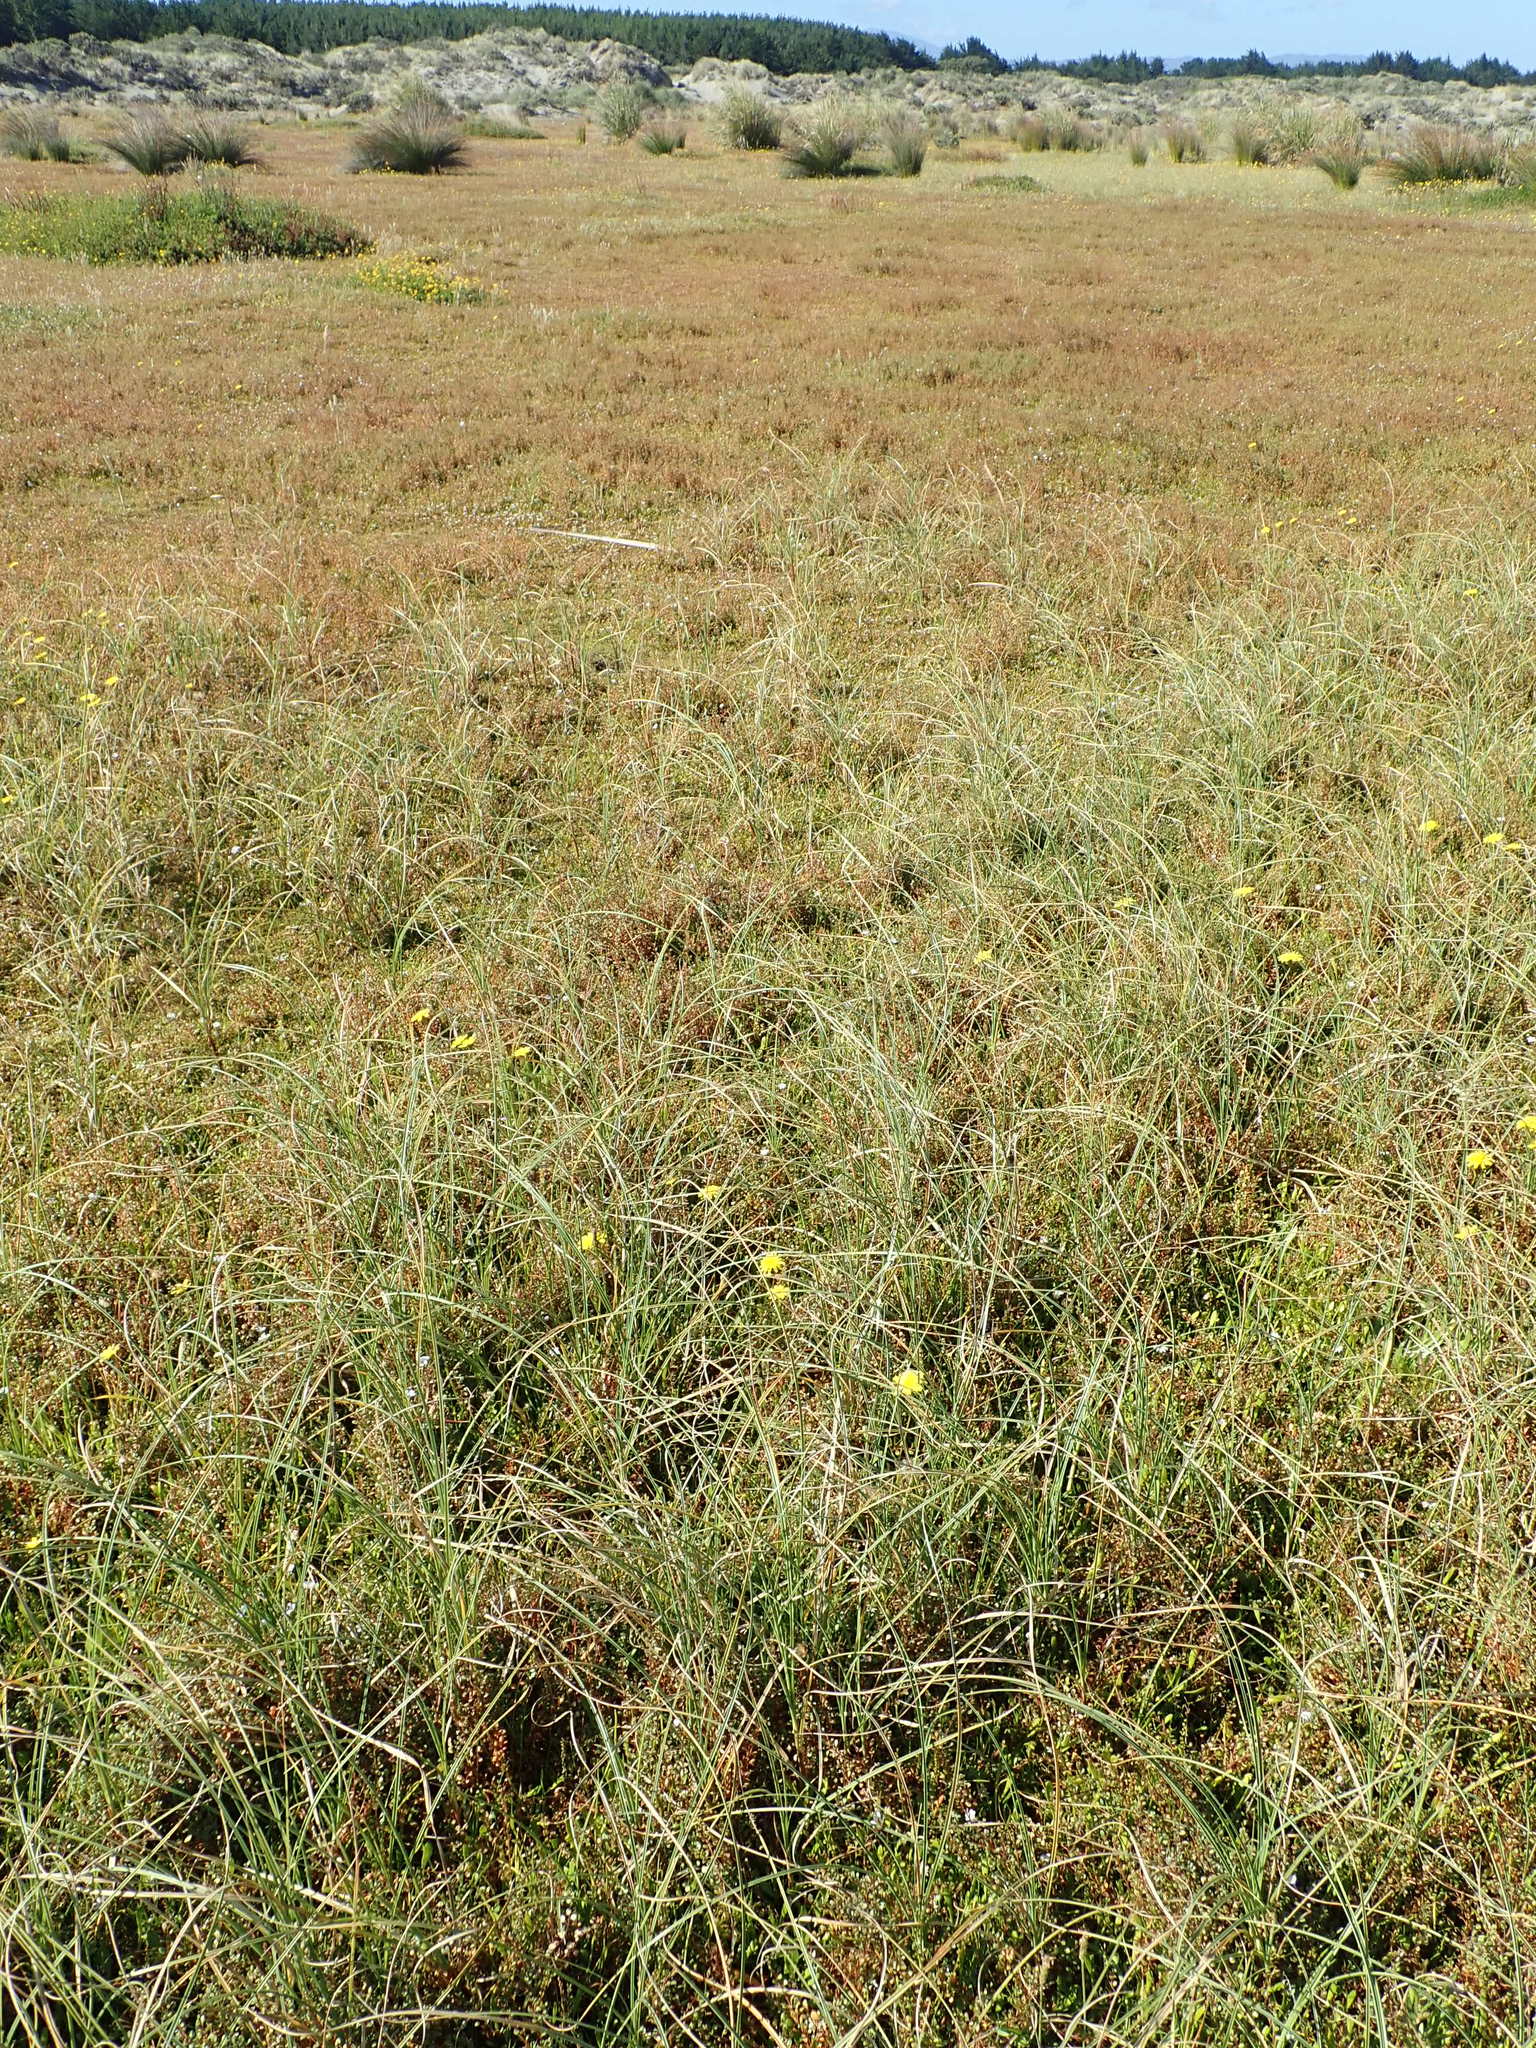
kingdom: Plantae
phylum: Tracheophyta
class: Liliopsida
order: Poales
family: Cyperaceae
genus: Carex
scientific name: Carex pumila
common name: Dwarf sedge
